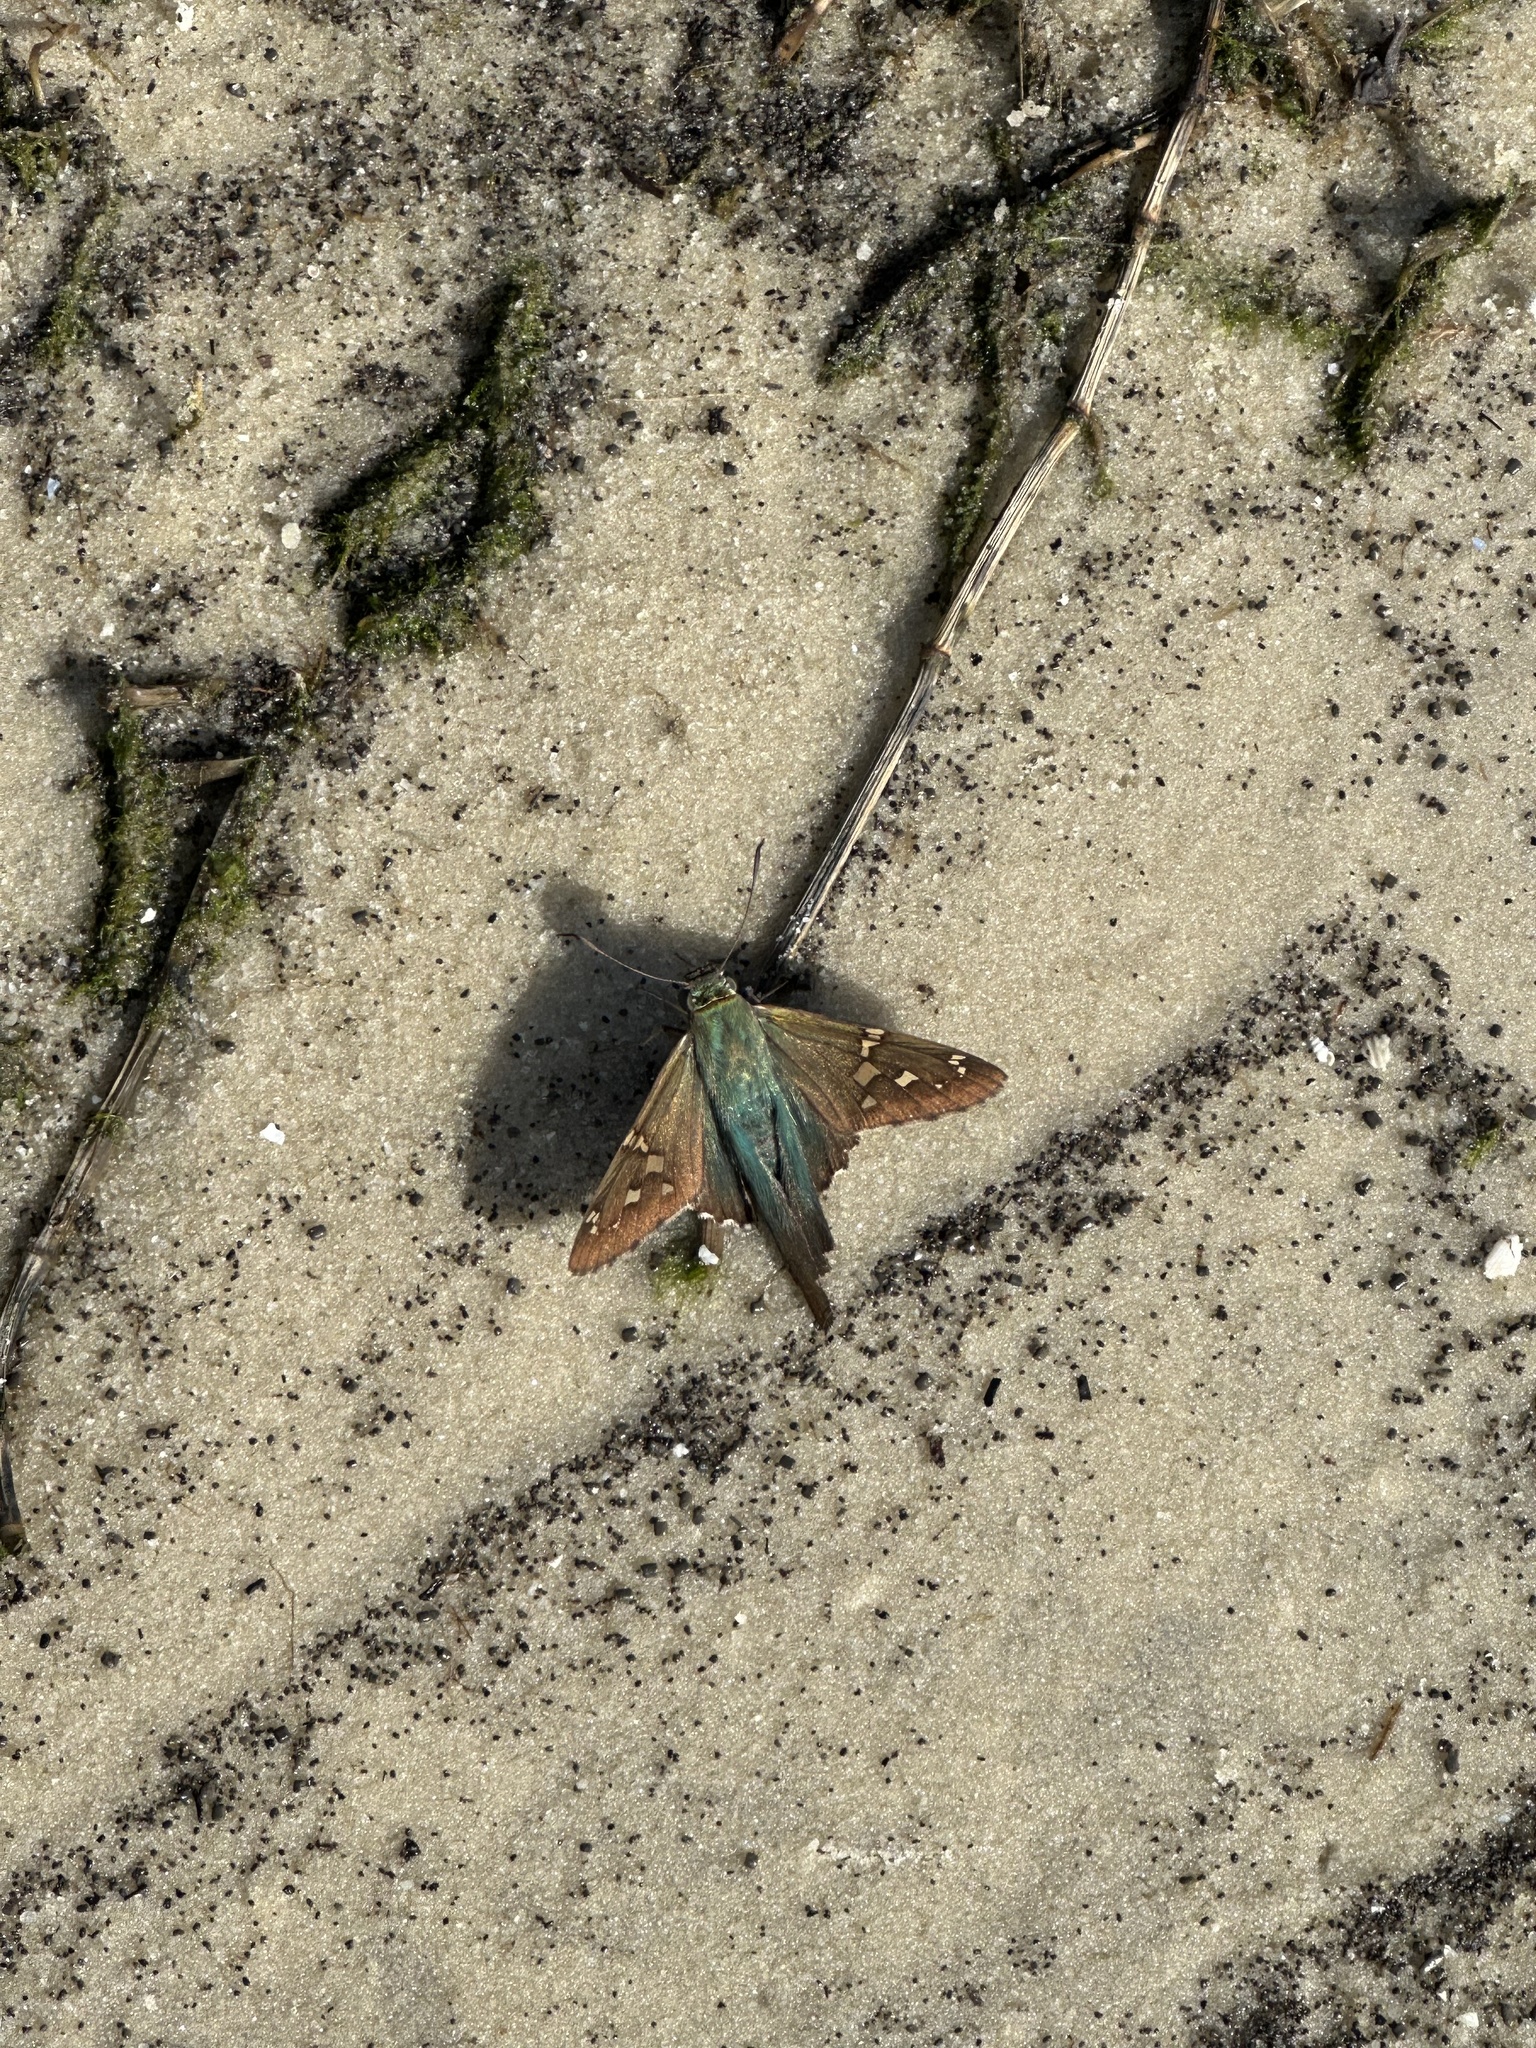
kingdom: Animalia
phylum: Arthropoda
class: Insecta
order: Lepidoptera
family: Hesperiidae
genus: Urbanus
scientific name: Urbanus proteus
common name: Long-tailed skipper
